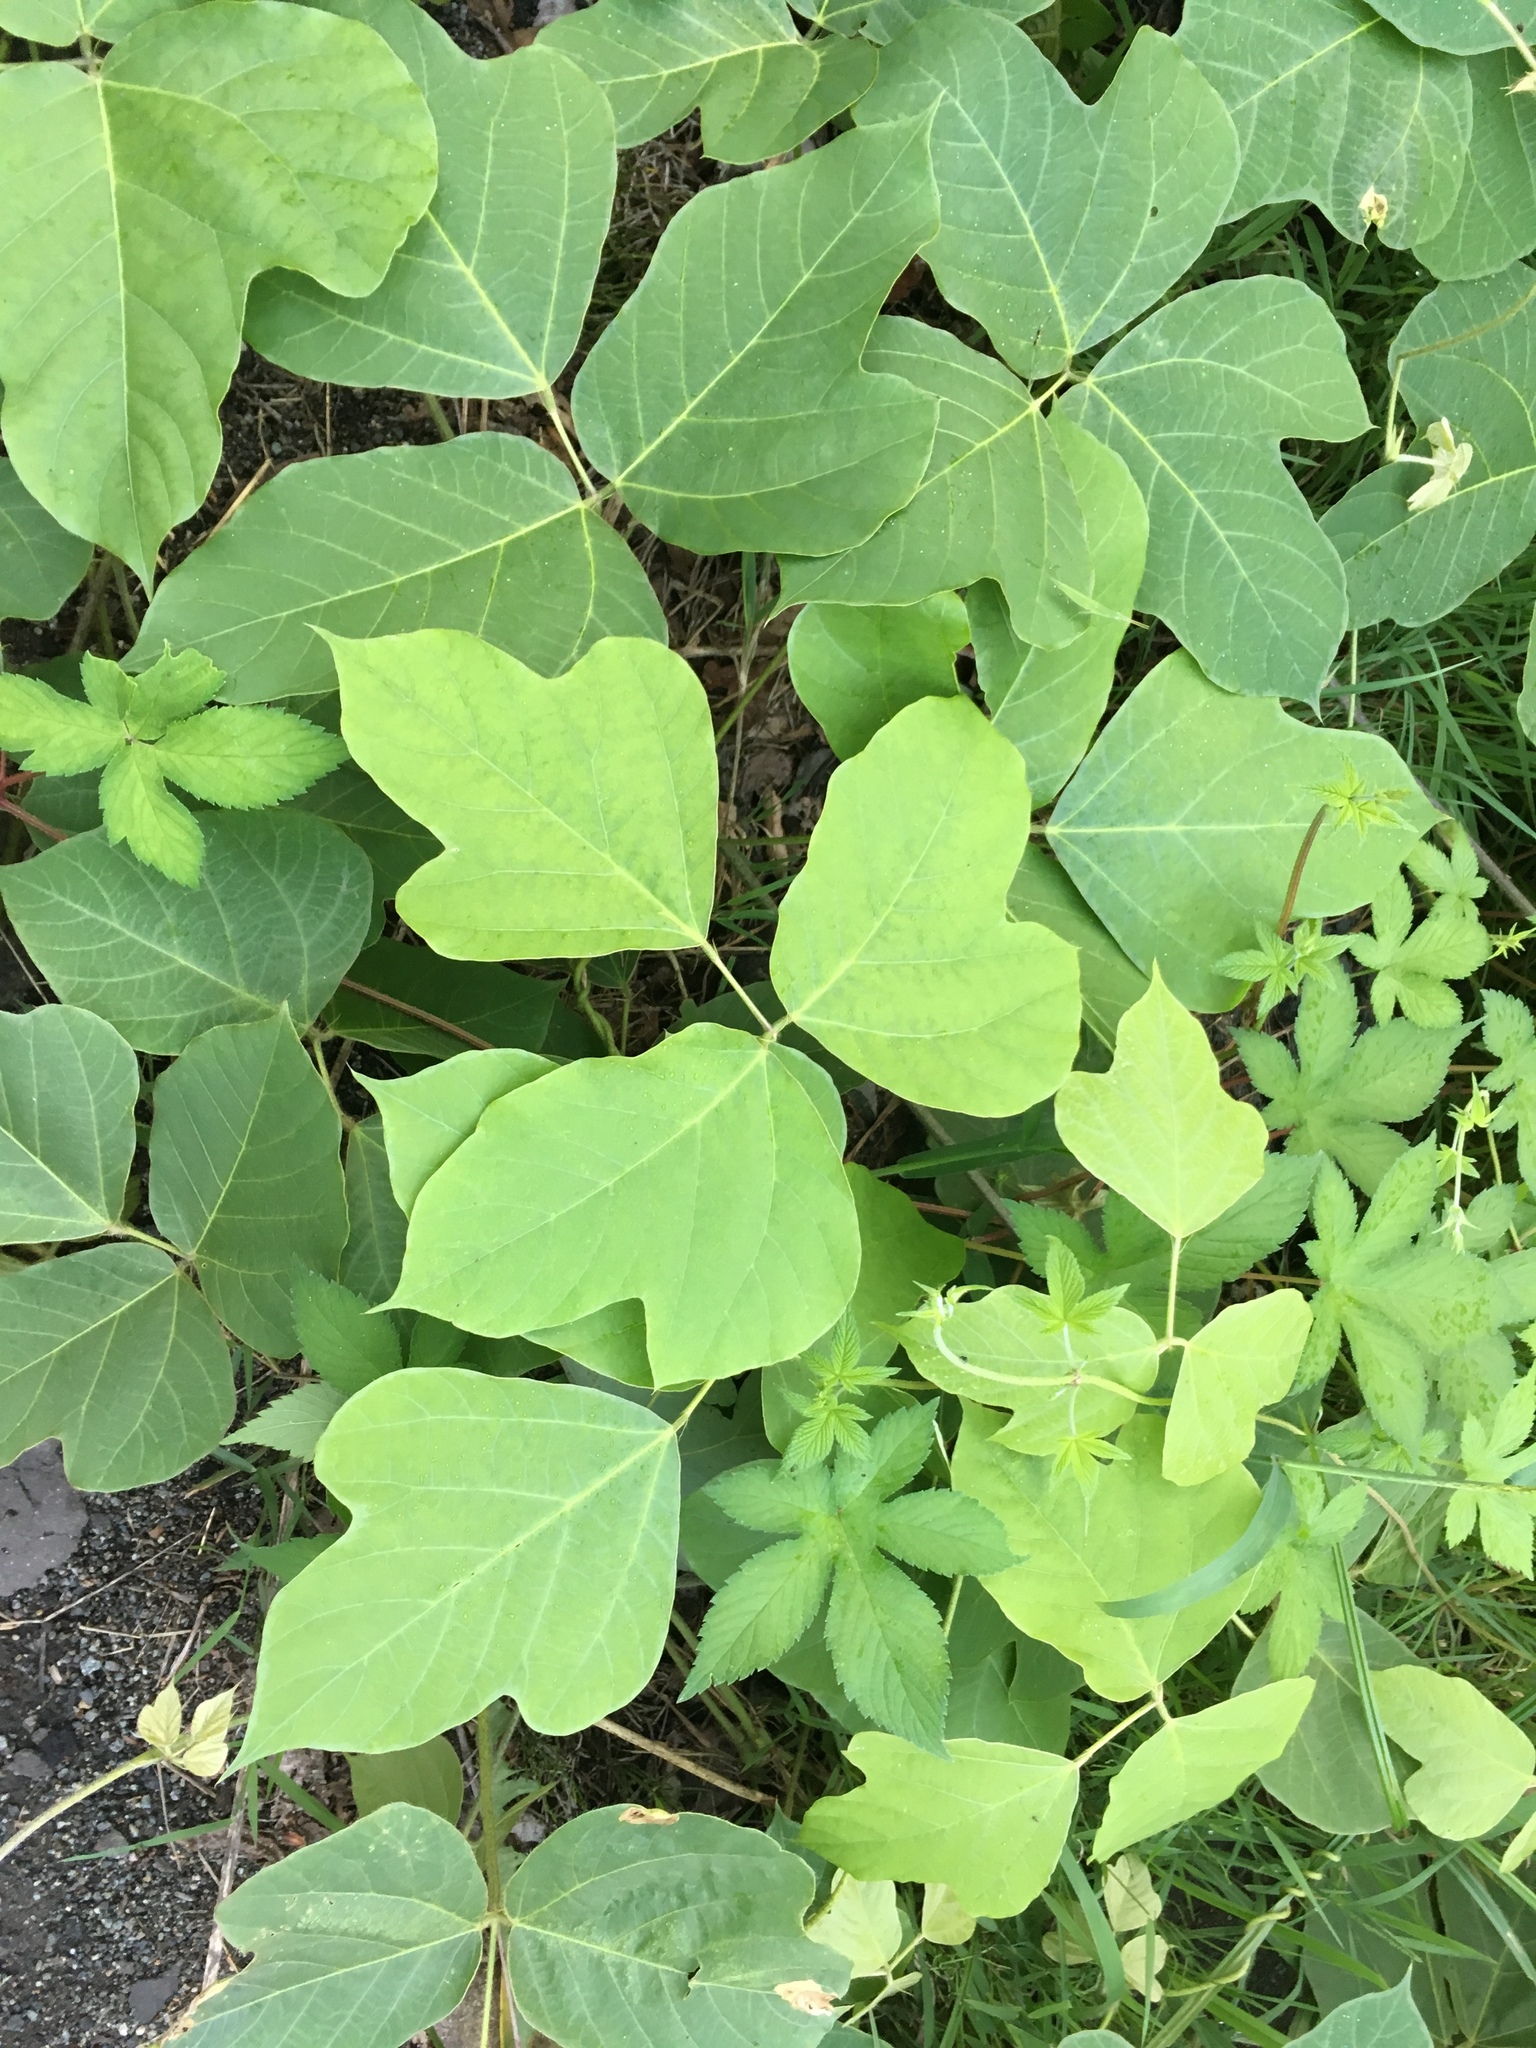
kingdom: Plantae
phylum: Tracheophyta
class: Magnoliopsida
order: Fabales
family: Fabaceae
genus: Pueraria
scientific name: Pueraria montana
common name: Kudzu
